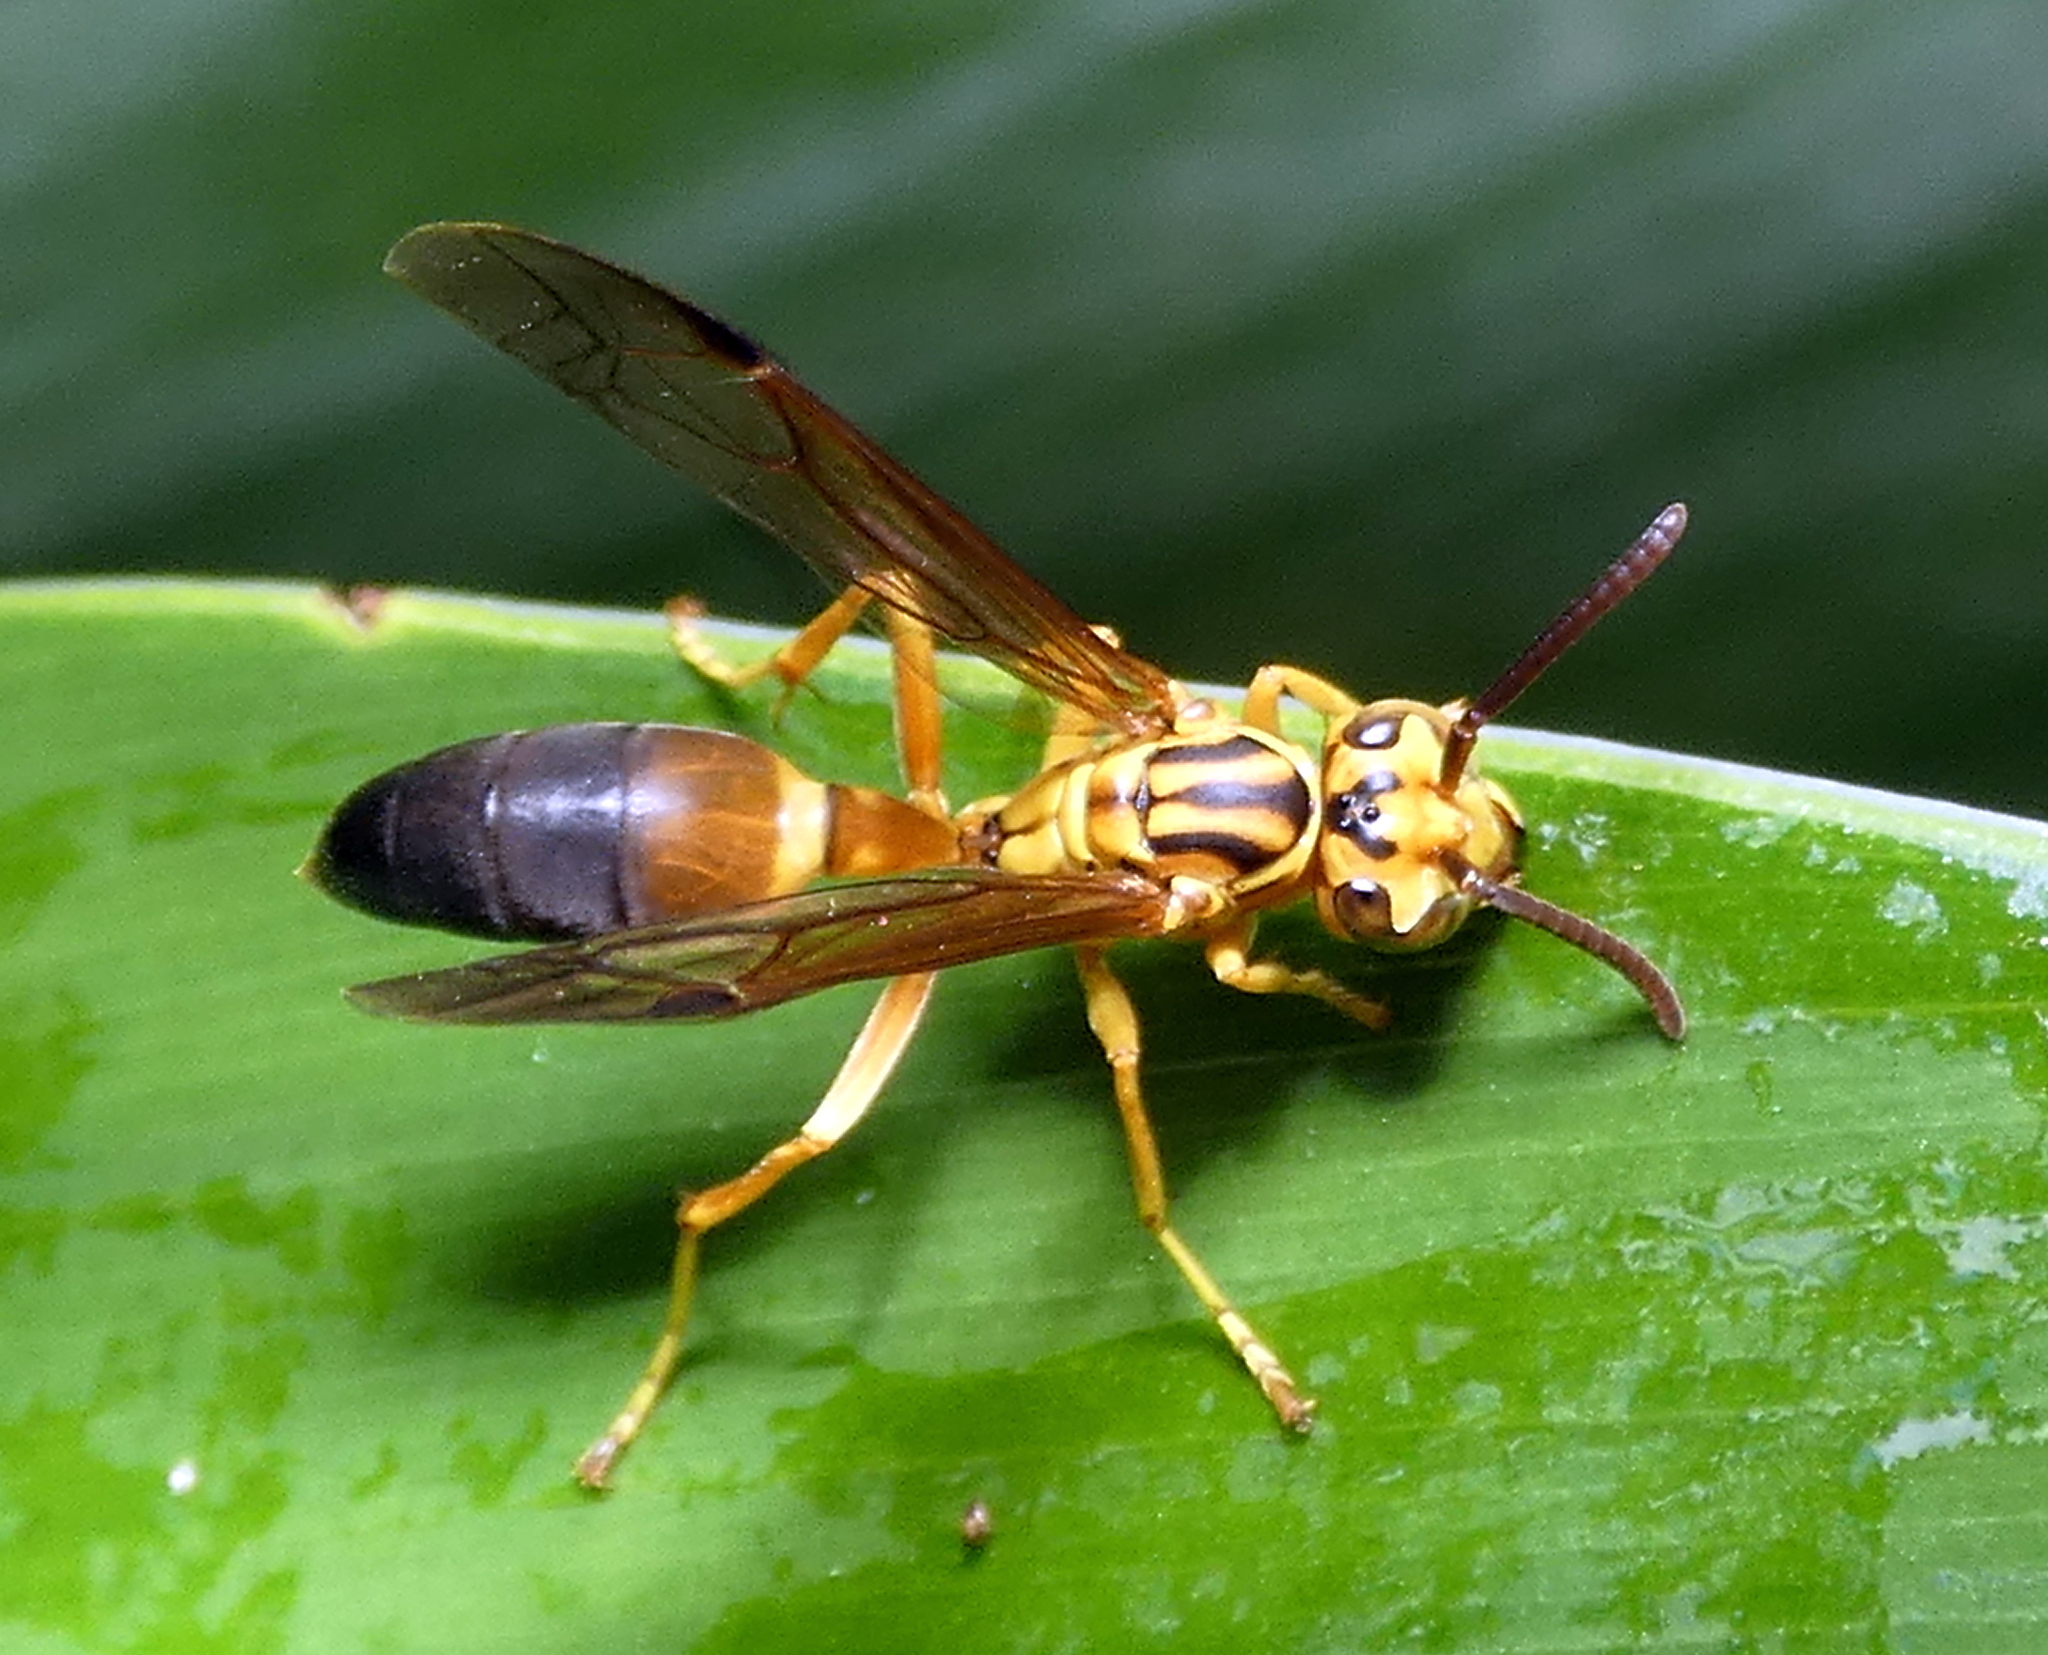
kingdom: Animalia
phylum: Arthropoda
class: Insecta
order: Hymenoptera
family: Vespidae
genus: Agelaia
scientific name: Agelaia pallipes
